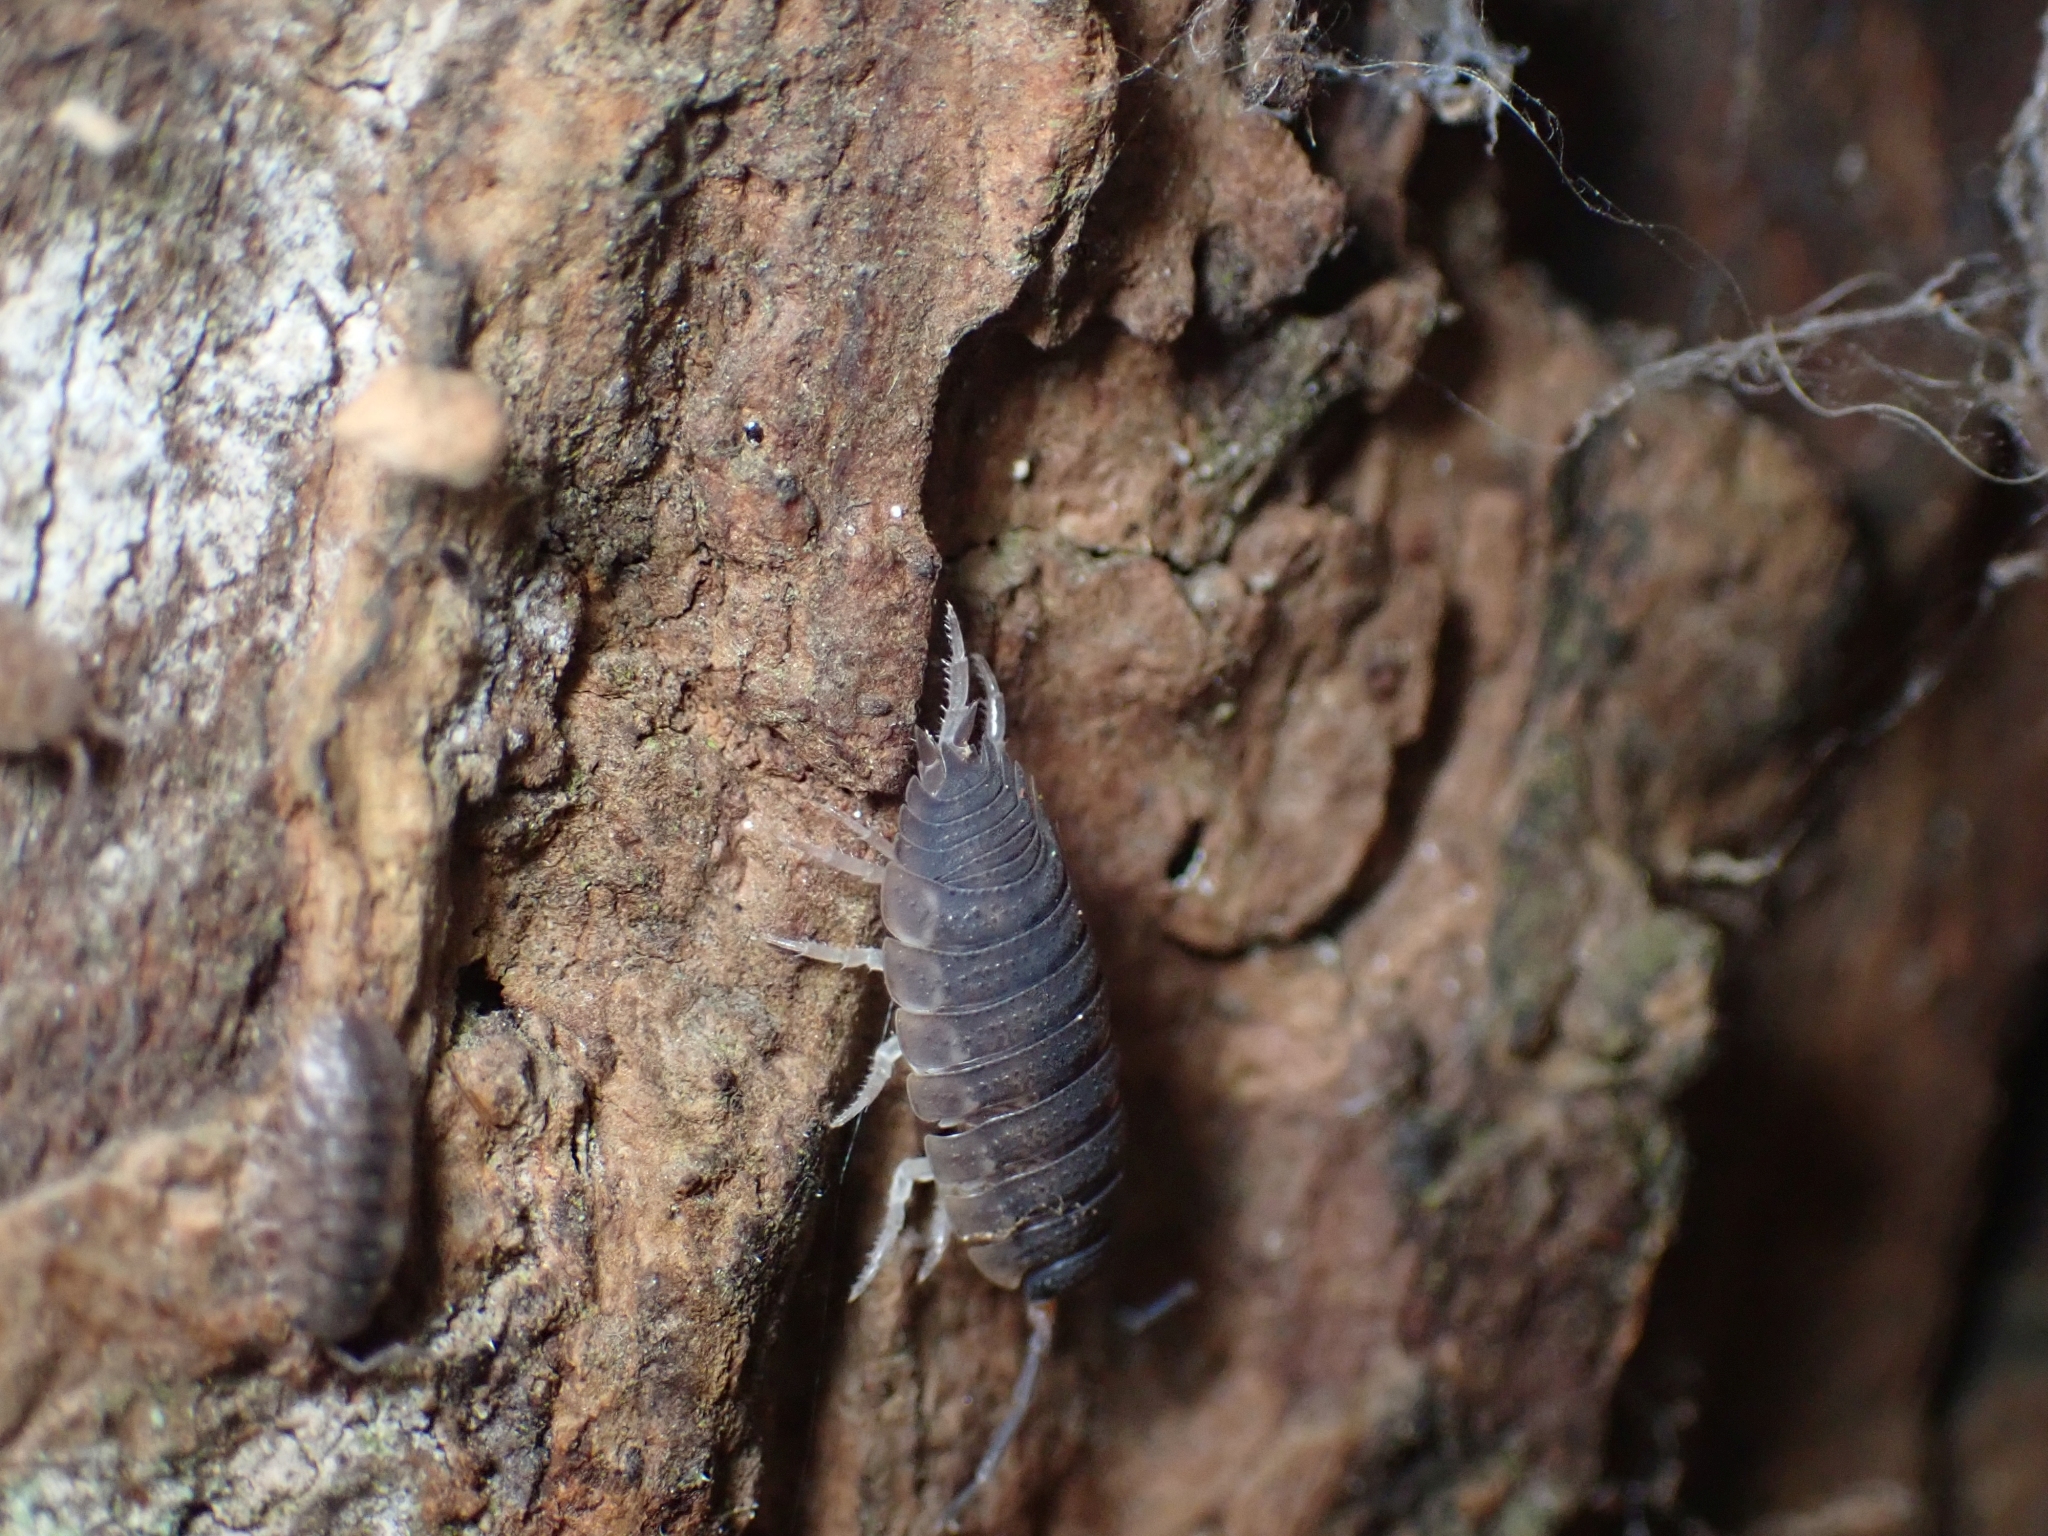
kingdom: Animalia
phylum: Arthropoda
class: Malacostraca
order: Isopoda
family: Porcellionidae
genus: Porcellio
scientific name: Porcellio scaber
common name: Common rough woodlouse
